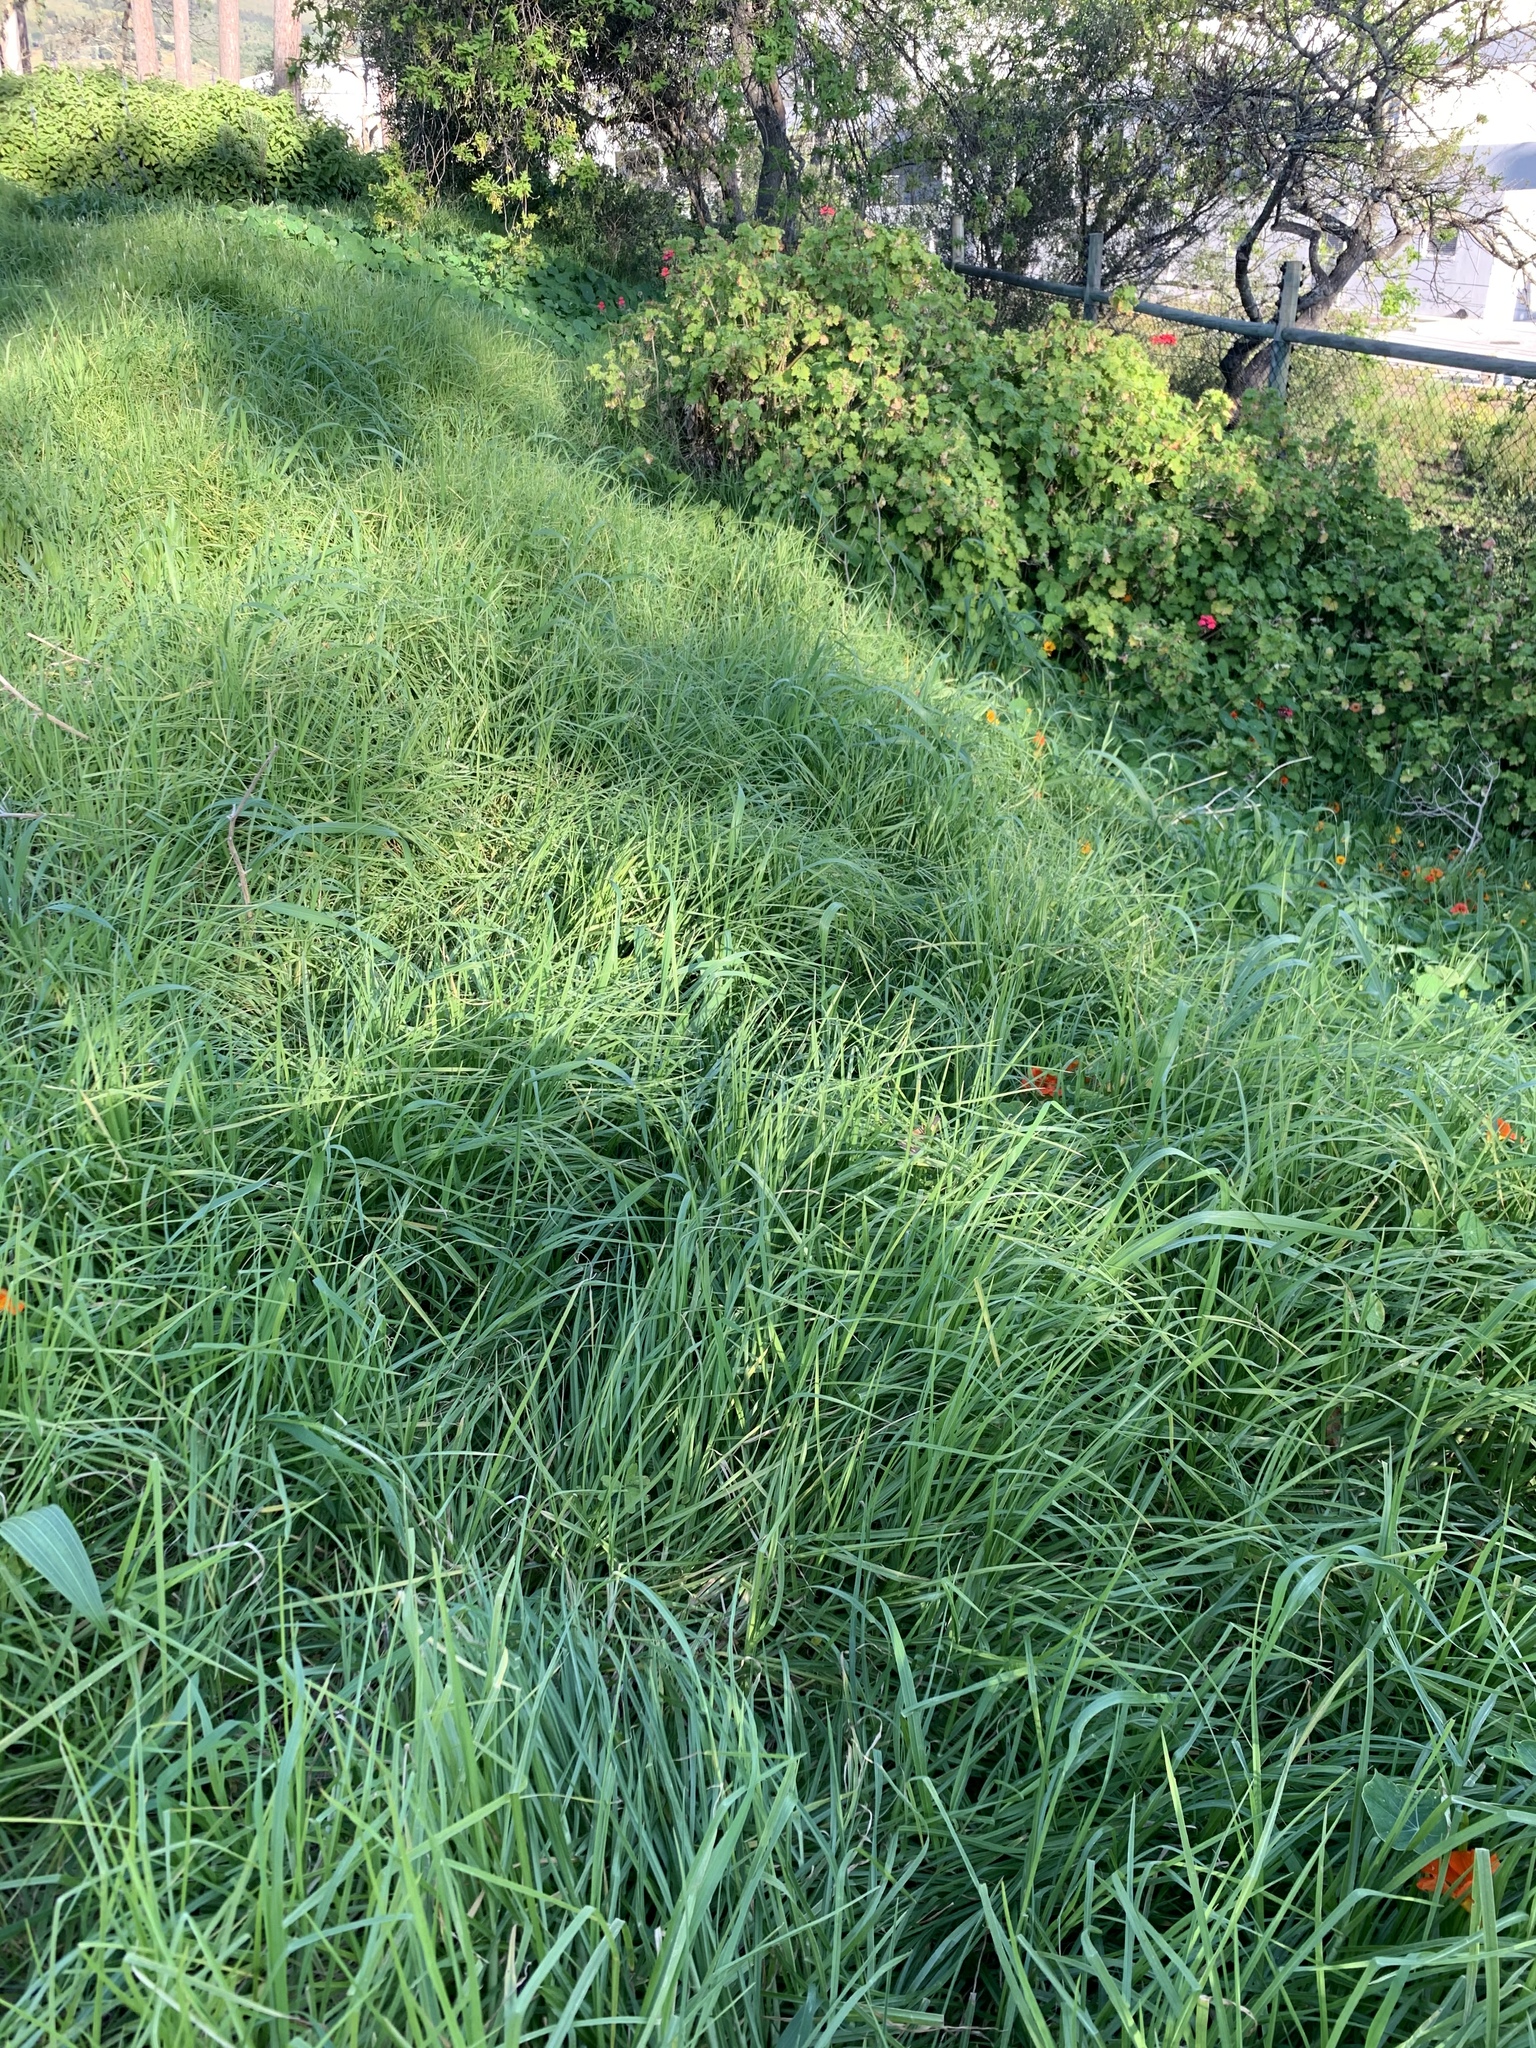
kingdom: Plantae
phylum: Tracheophyta
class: Liliopsida
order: Poales
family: Poaceae
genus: Cenchrus
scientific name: Cenchrus clandestinus
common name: Kikuyugrass
